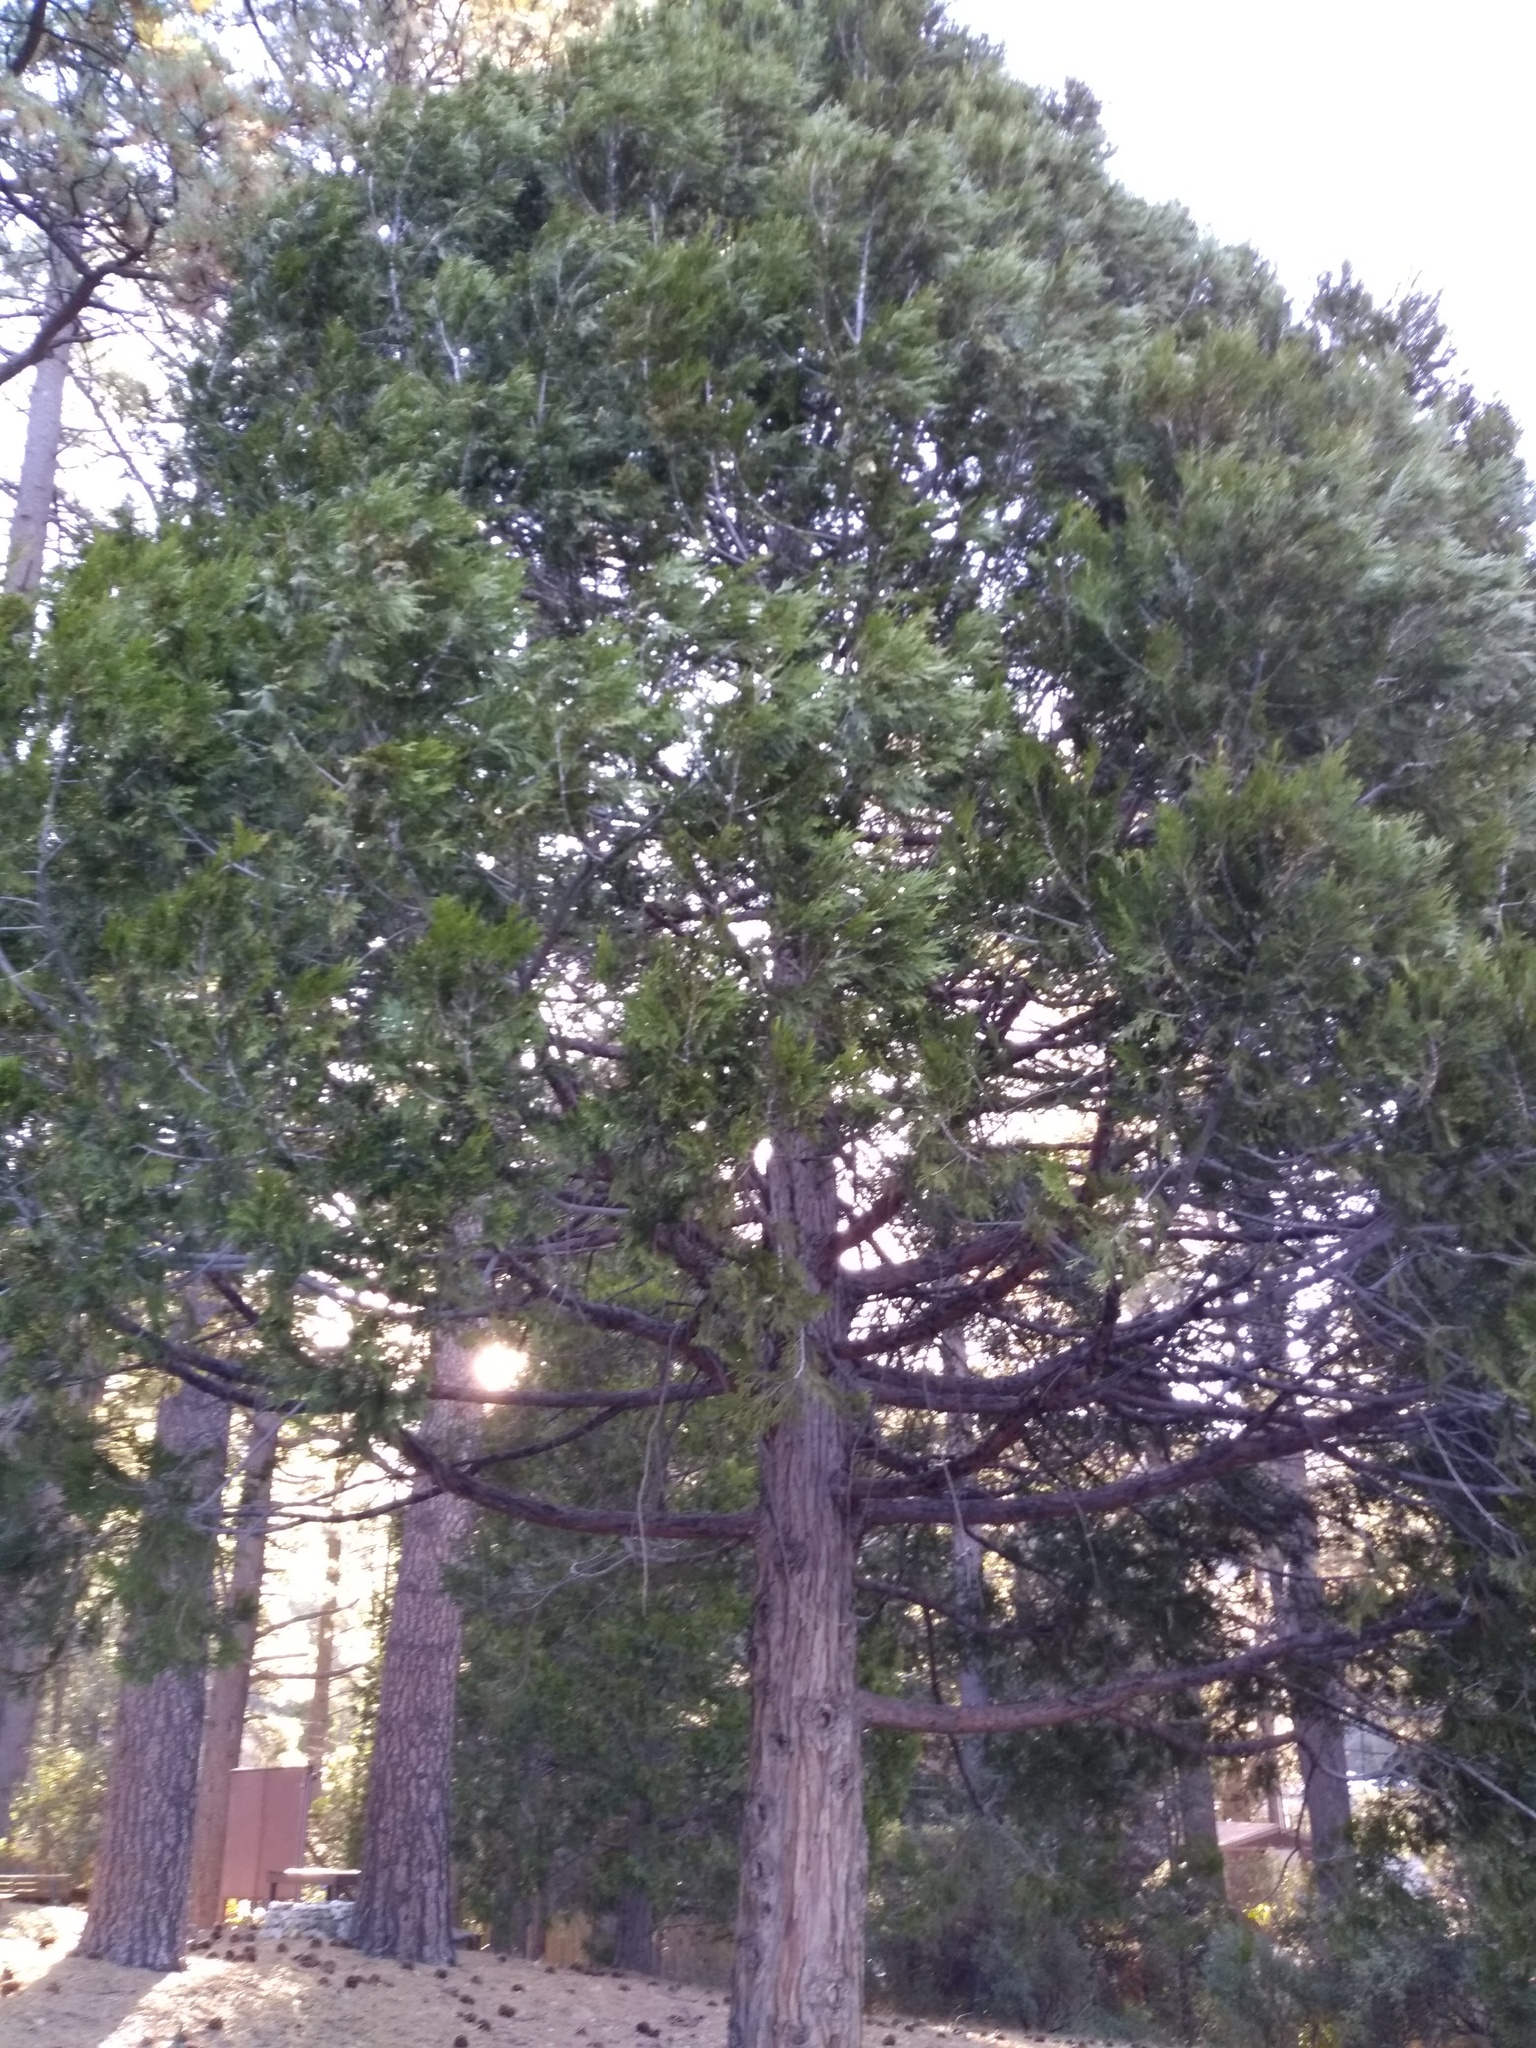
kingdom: Plantae
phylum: Tracheophyta
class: Pinopsida
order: Pinales
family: Cupressaceae
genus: Calocedrus
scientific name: Calocedrus decurrens
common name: Californian incense-cedar
